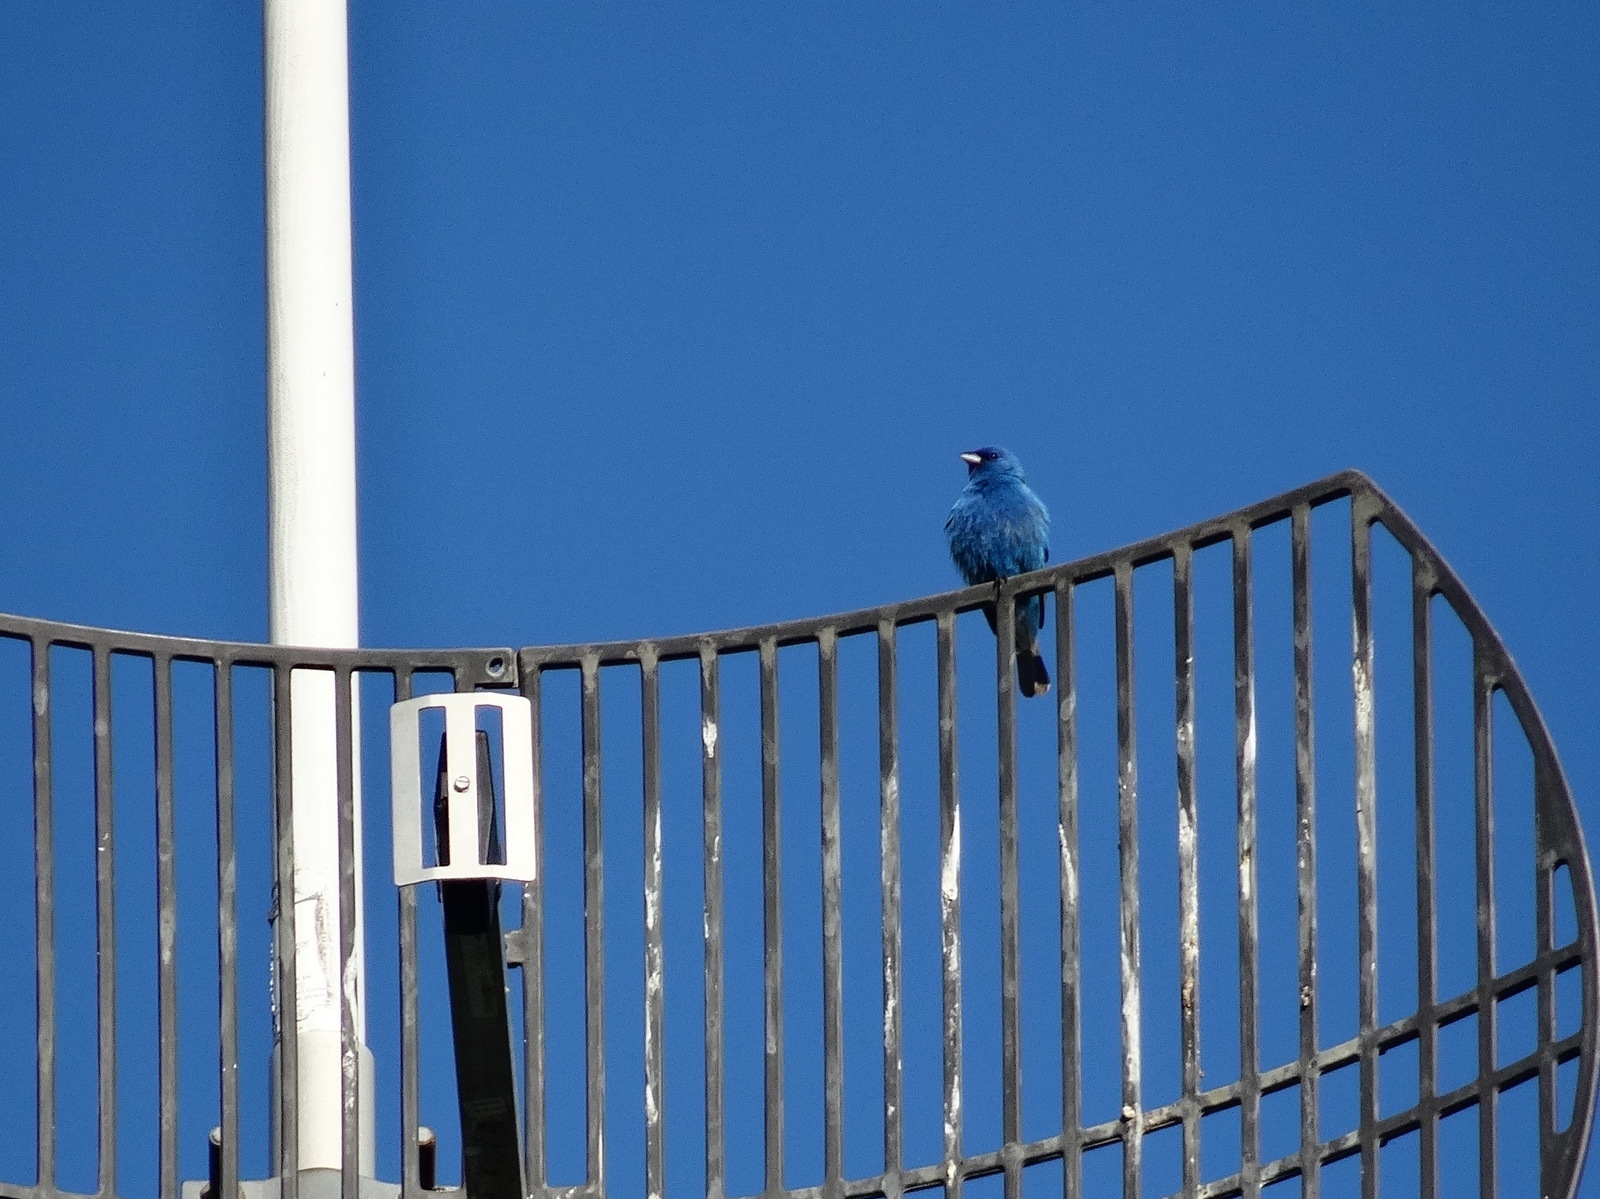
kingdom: Animalia
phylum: Chordata
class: Aves
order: Passeriformes
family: Cardinalidae
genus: Passerina
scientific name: Passerina cyanea
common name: Indigo bunting
